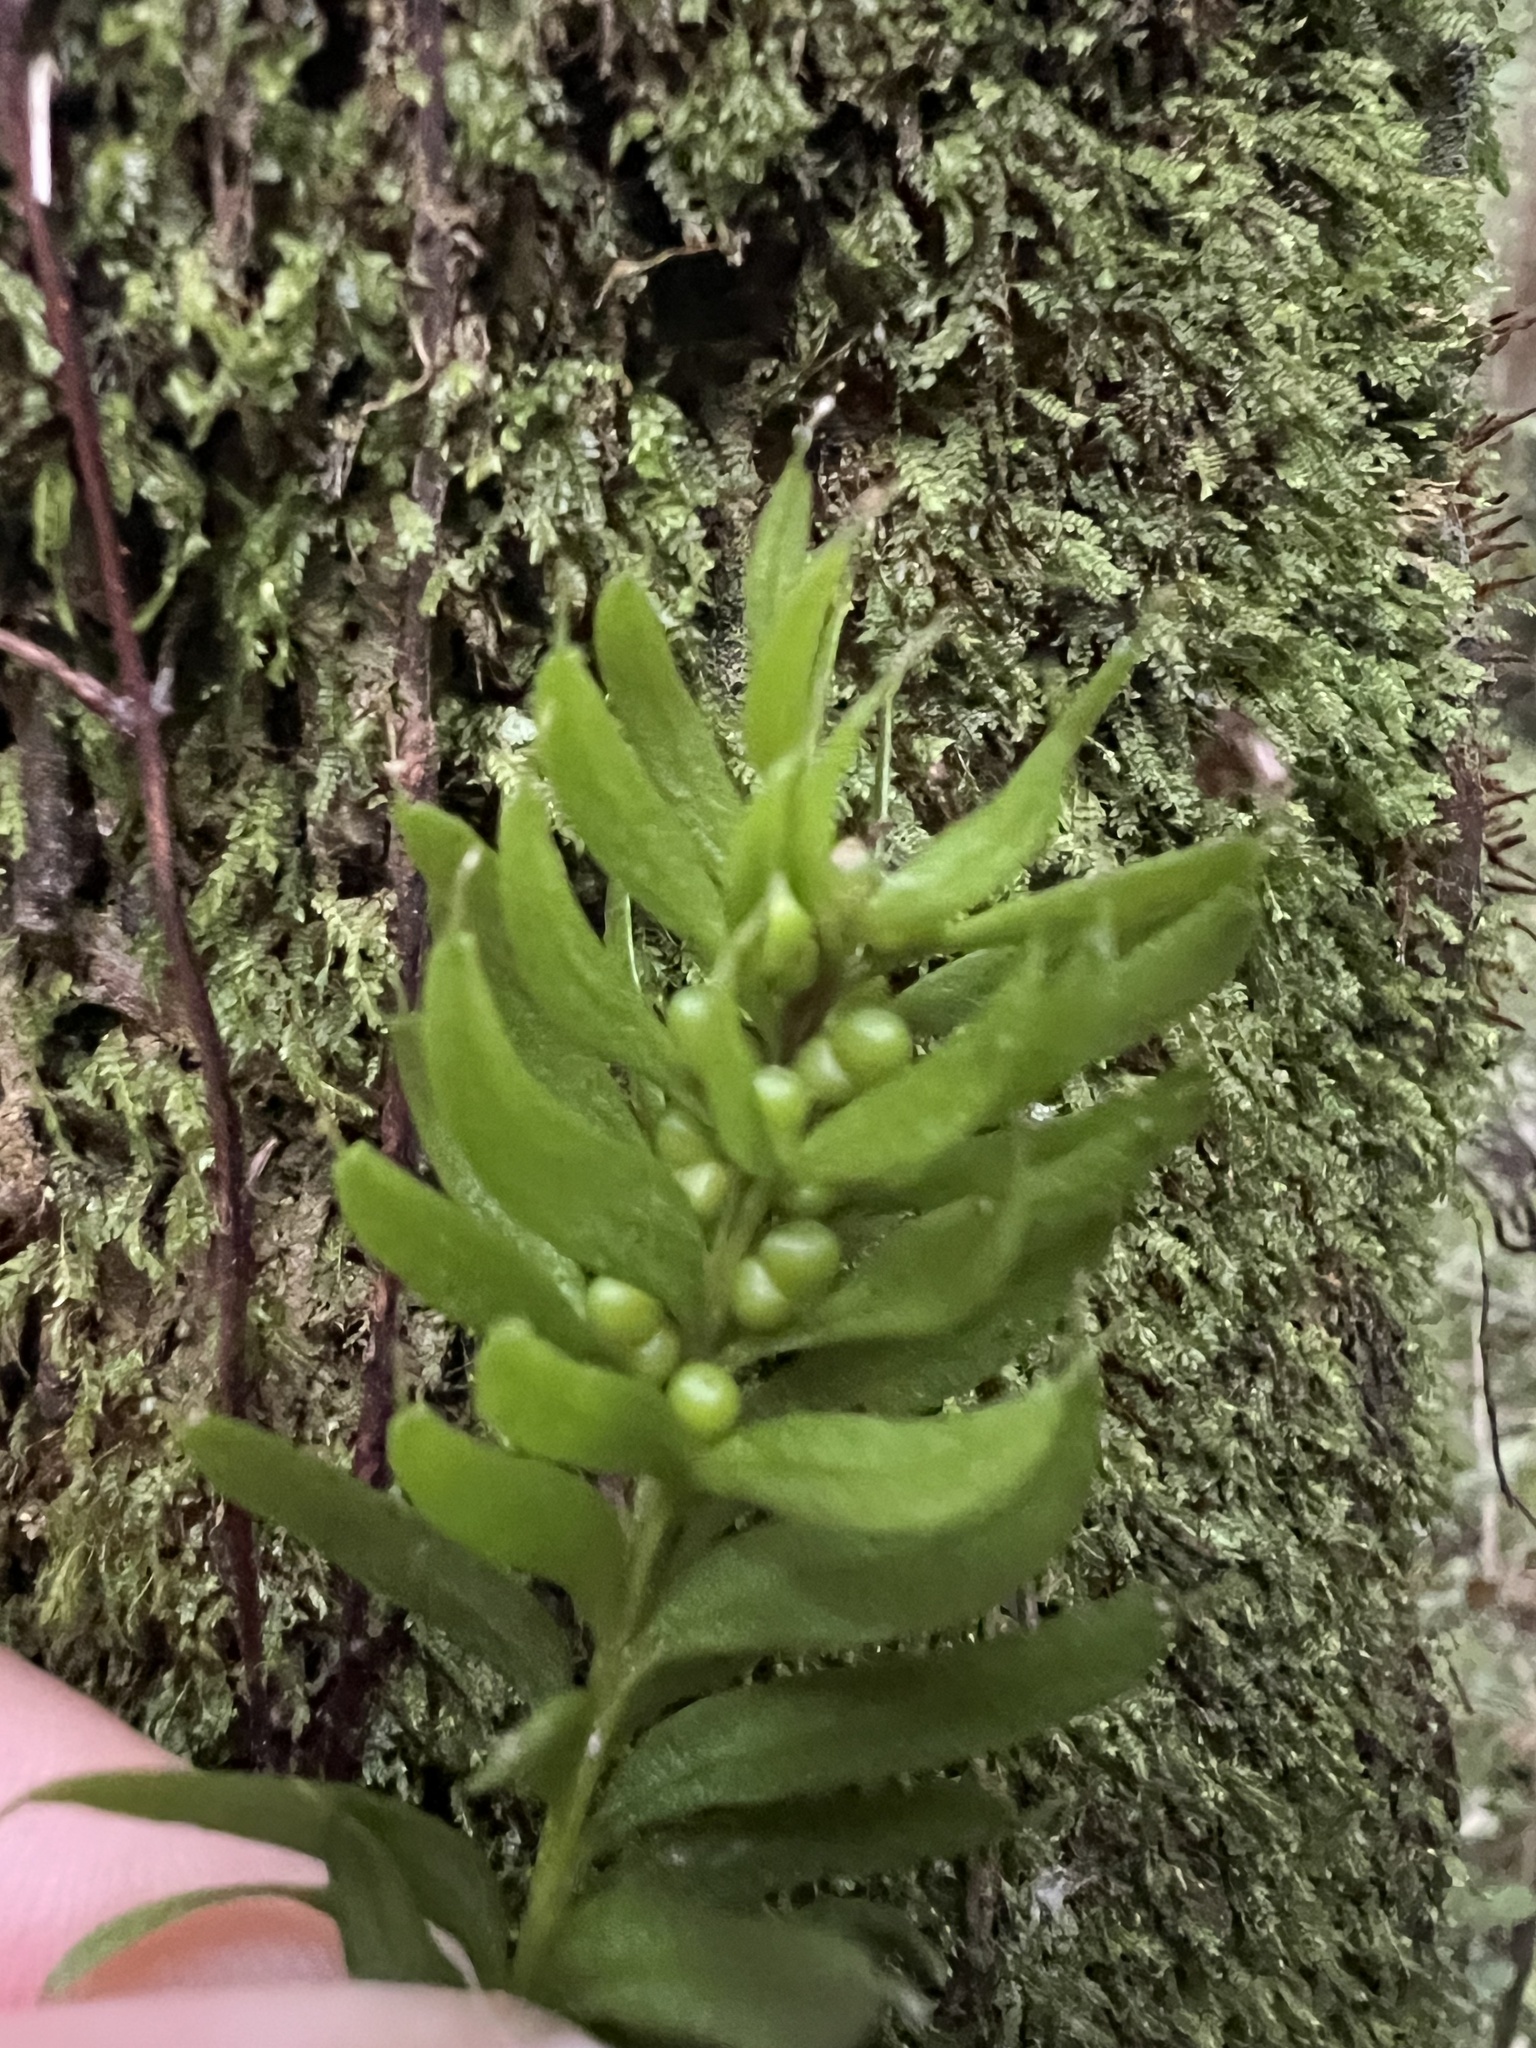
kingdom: Plantae
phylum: Tracheophyta
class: Polypodiopsida
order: Psilotales
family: Psilotaceae
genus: Tmesipteris
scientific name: Tmesipteris sigmatifolia
